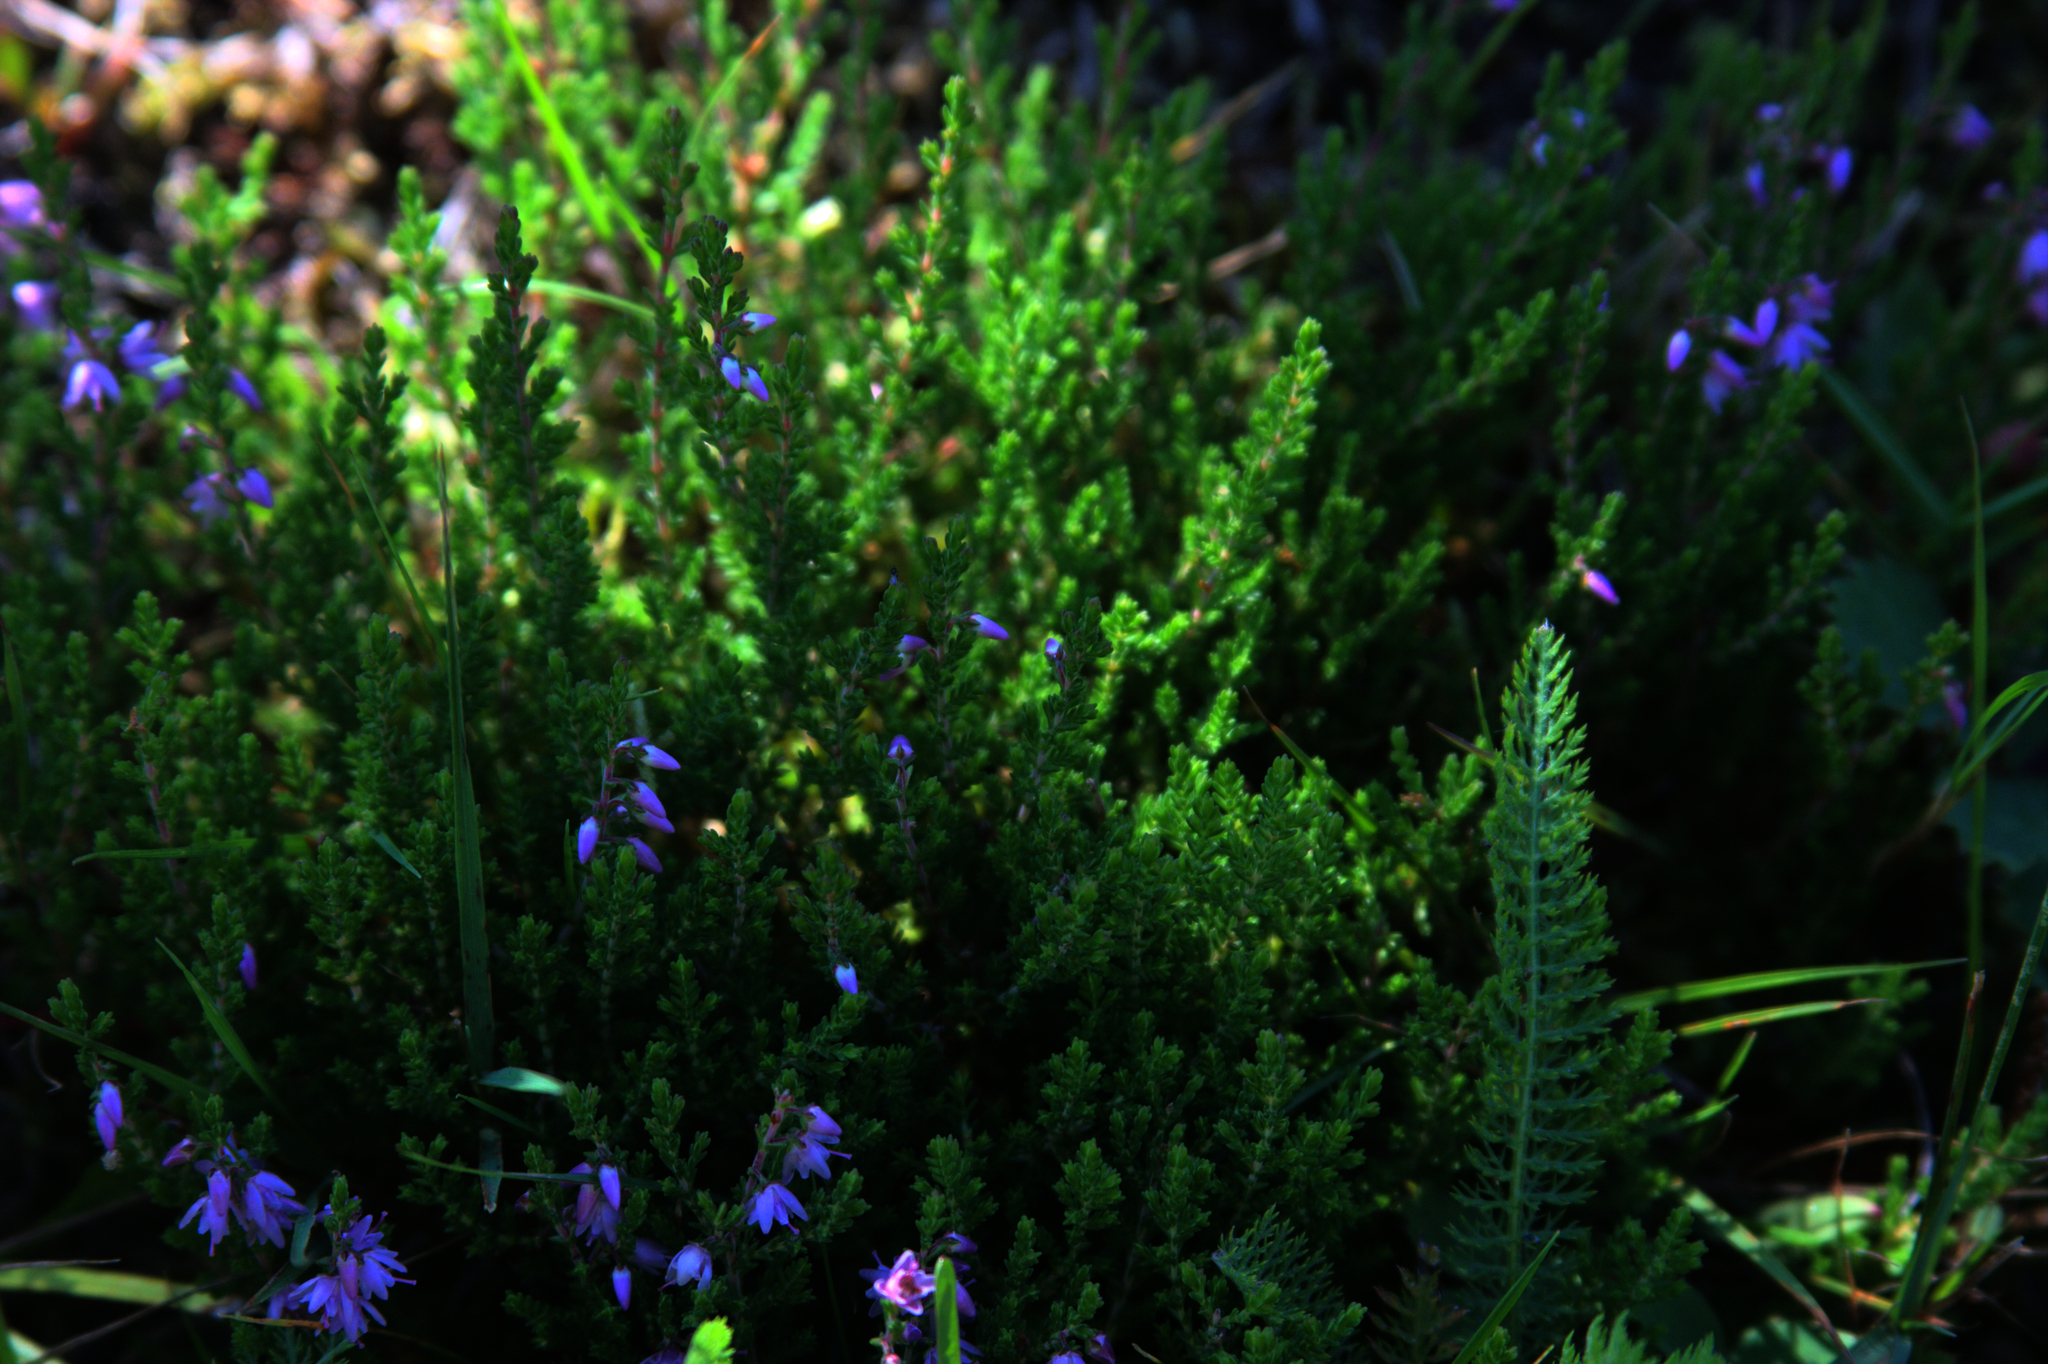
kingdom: Plantae
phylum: Tracheophyta
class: Magnoliopsida
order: Ericales
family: Ericaceae
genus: Calluna
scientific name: Calluna vulgaris
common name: Heather
